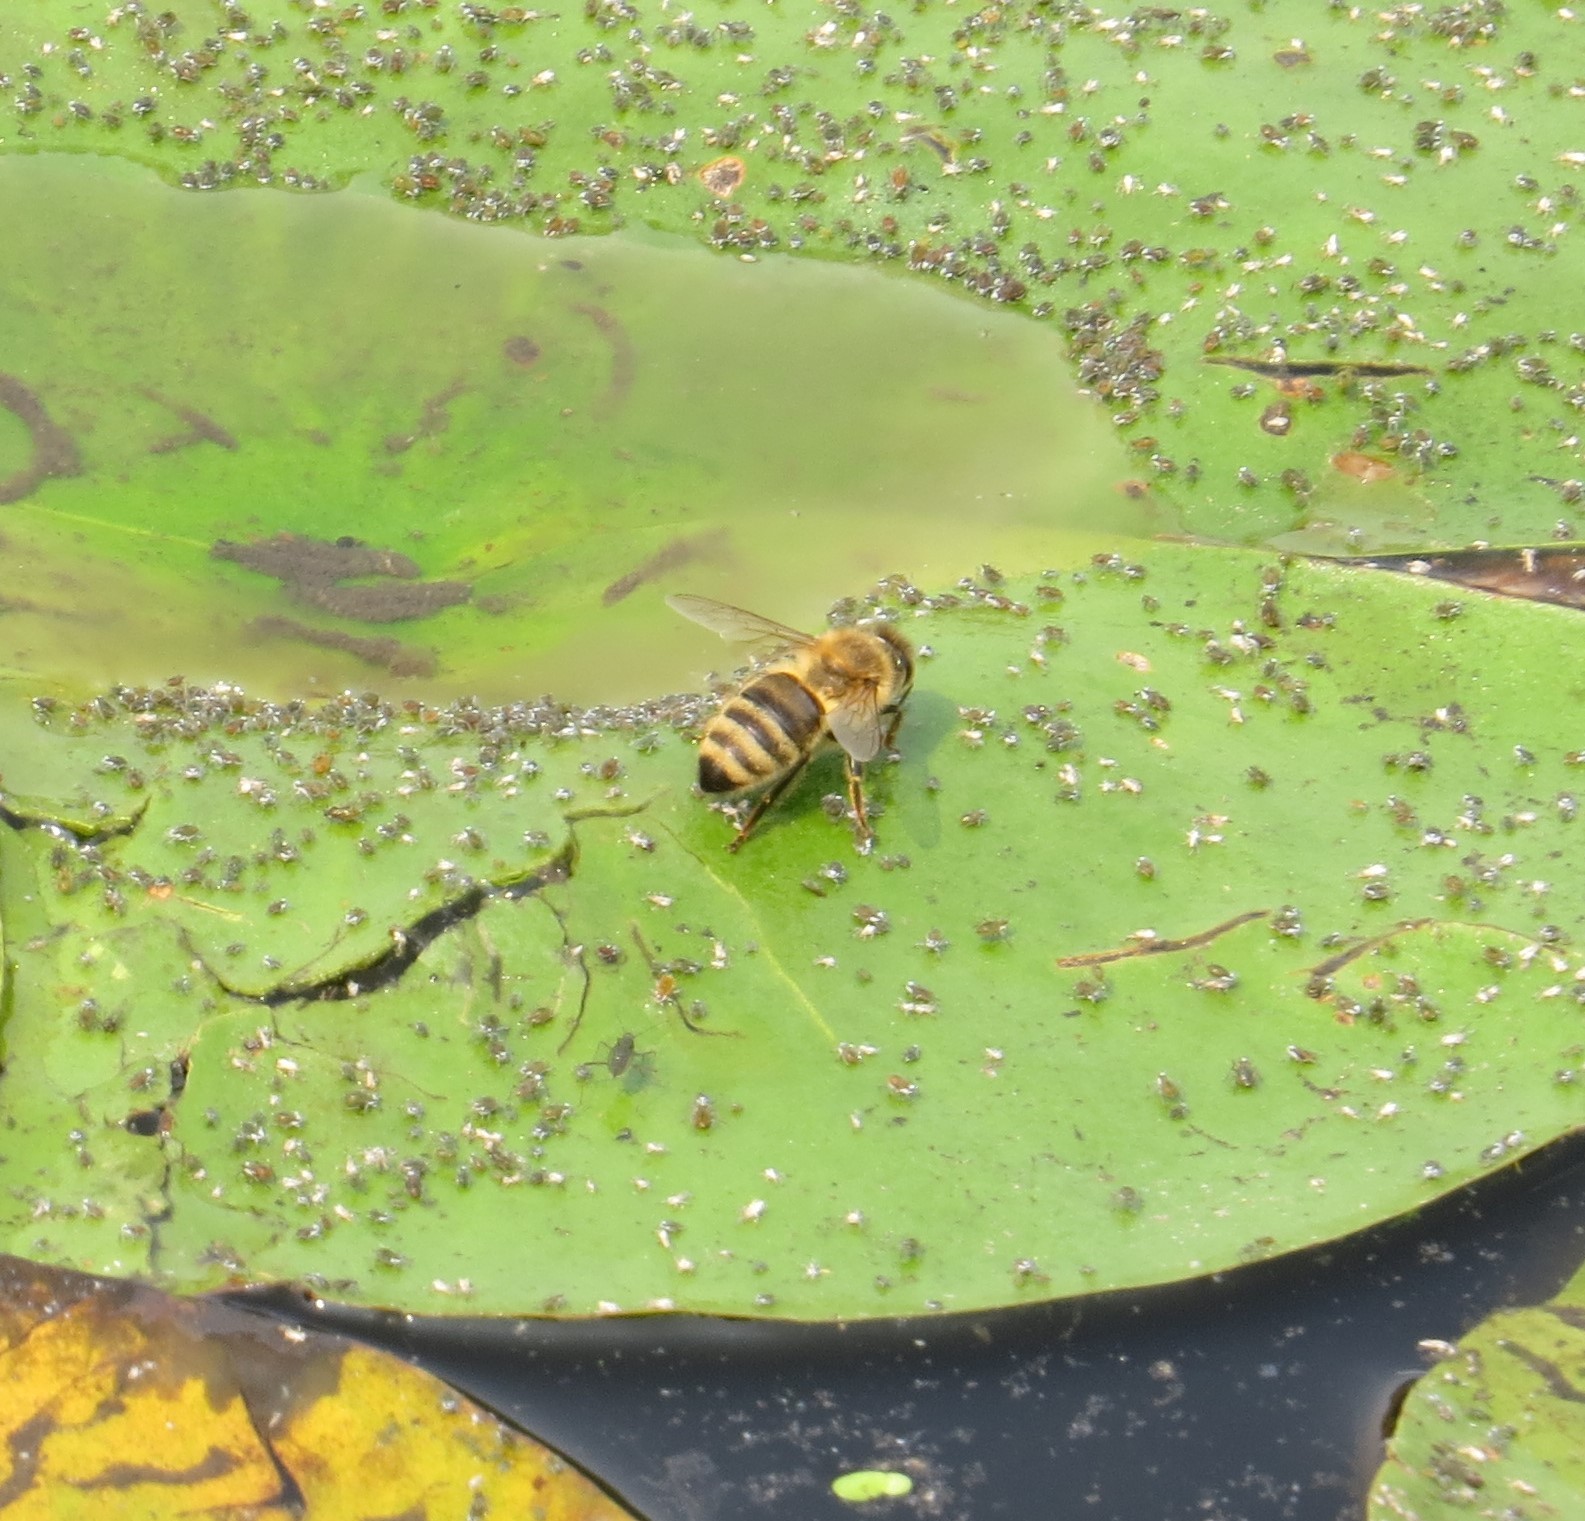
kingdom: Animalia
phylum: Arthropoda
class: Insecta
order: Hymenoptera
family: Apidae
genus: Apis
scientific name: Apis mellifera
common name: Honey bee
